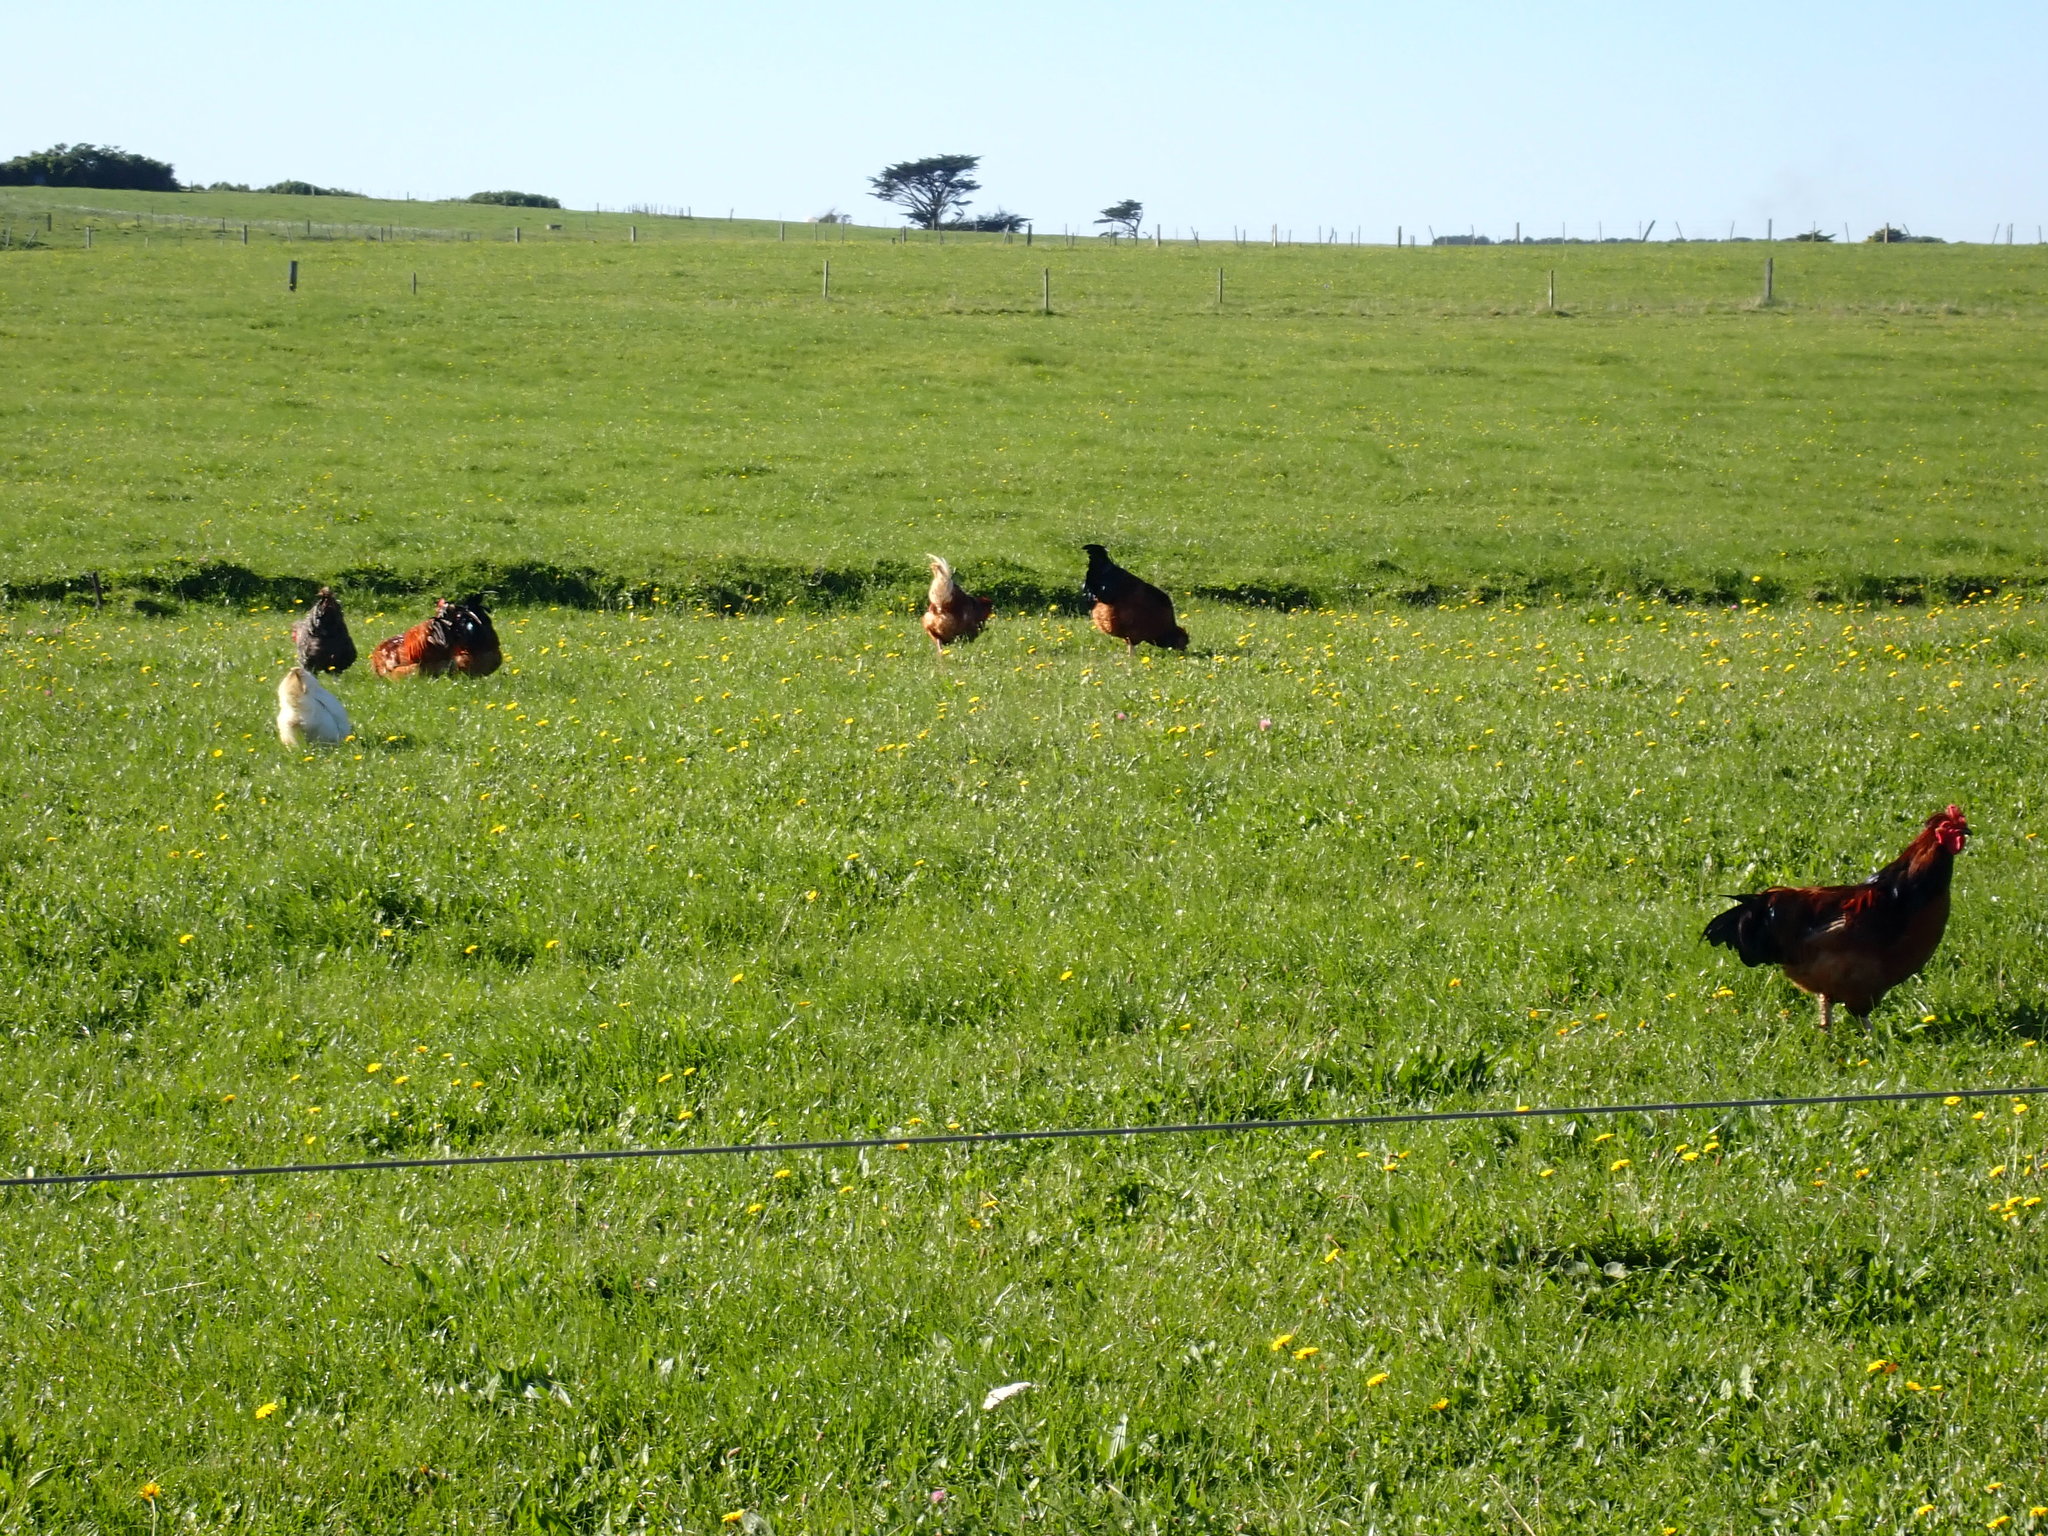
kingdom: Animalia
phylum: Chordata
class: Aves
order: Galliformes
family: Phasianidae
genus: Gallus
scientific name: Gallus gallus
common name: Red junglefowl
